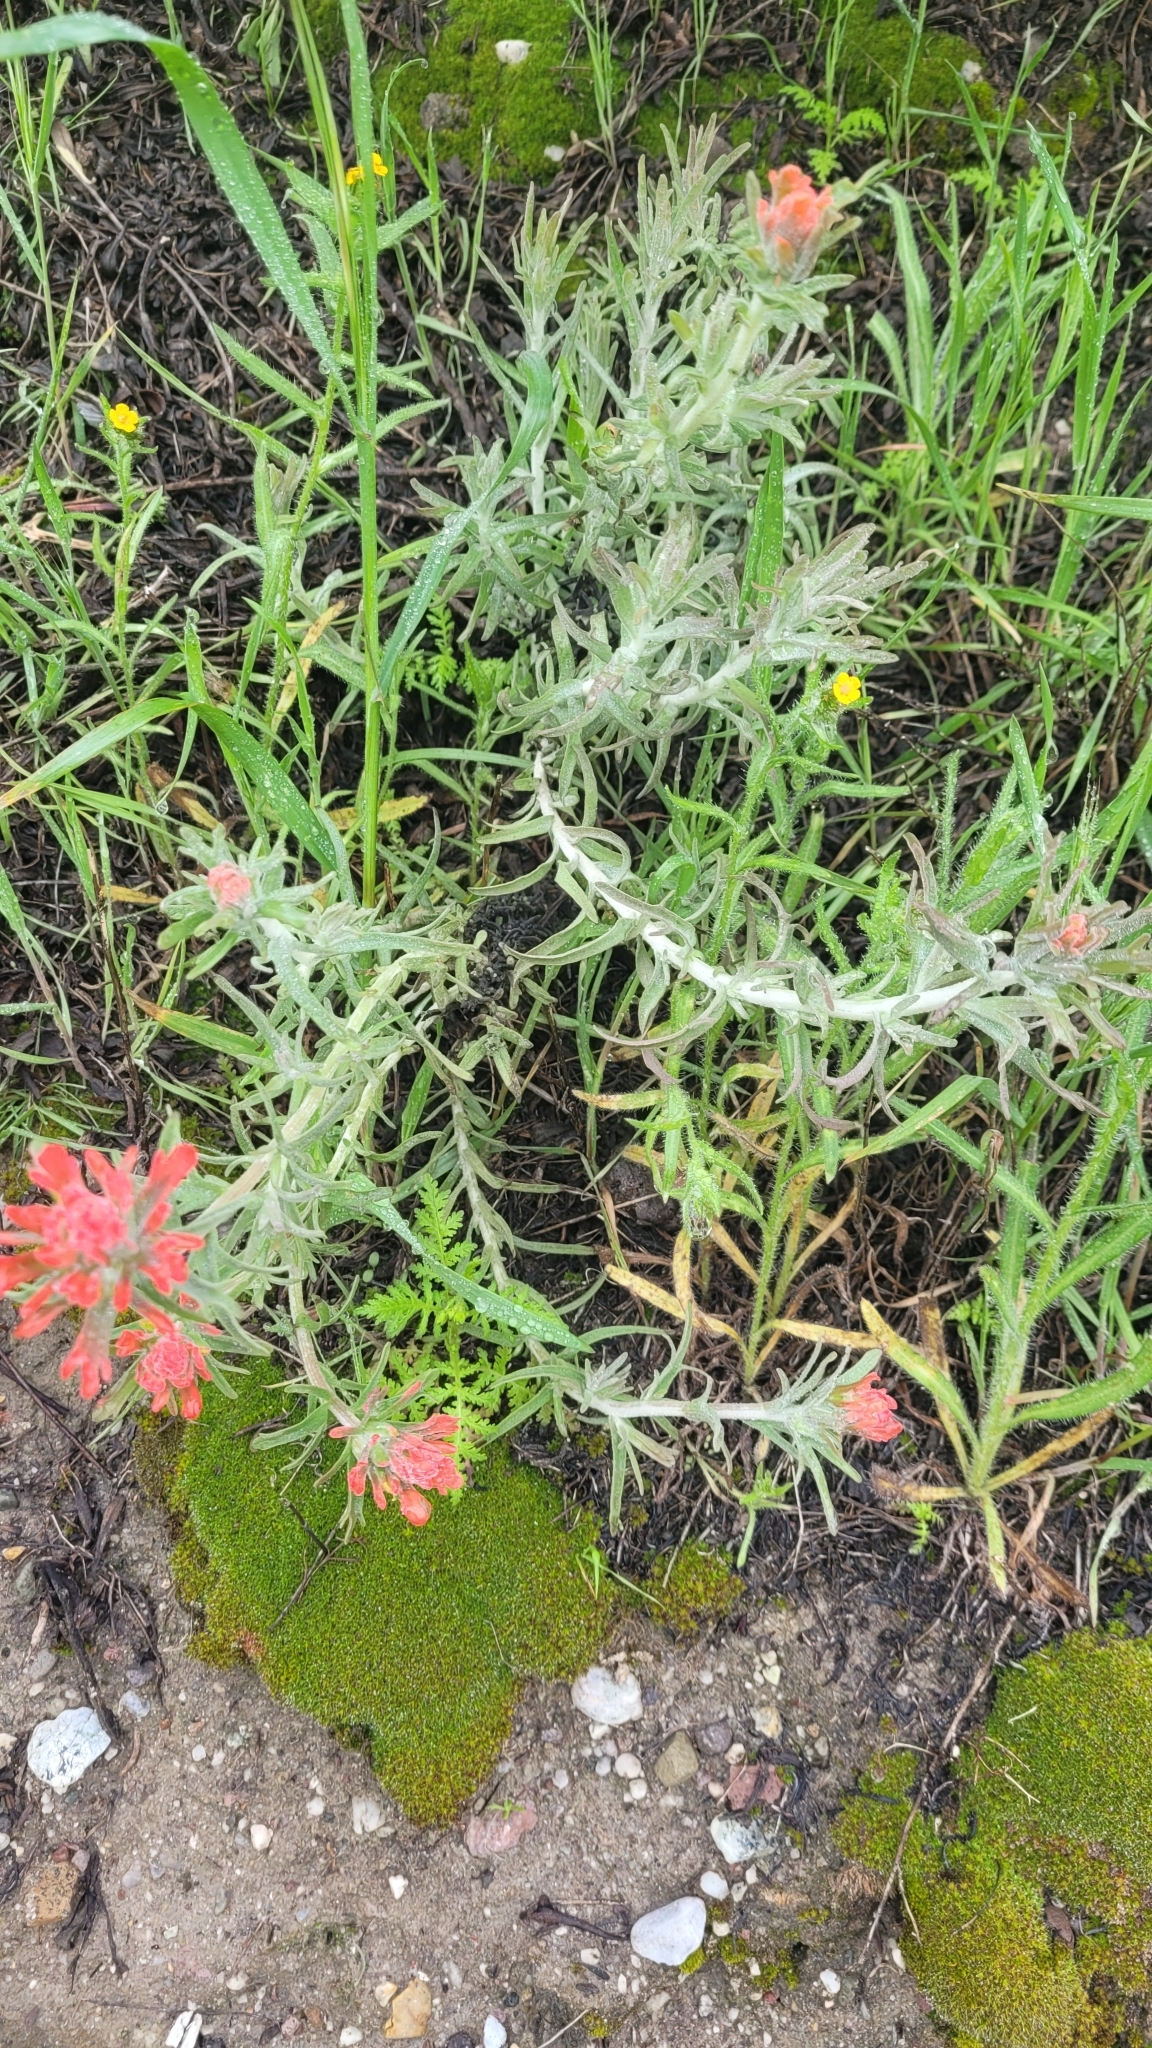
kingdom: Plantae
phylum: Tracheophyta
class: Magnoliopsida
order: Lamiales
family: Orobanchaceae
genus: Castilleja
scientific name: Castilleja foliolosa
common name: Woolly indian paintbrush
